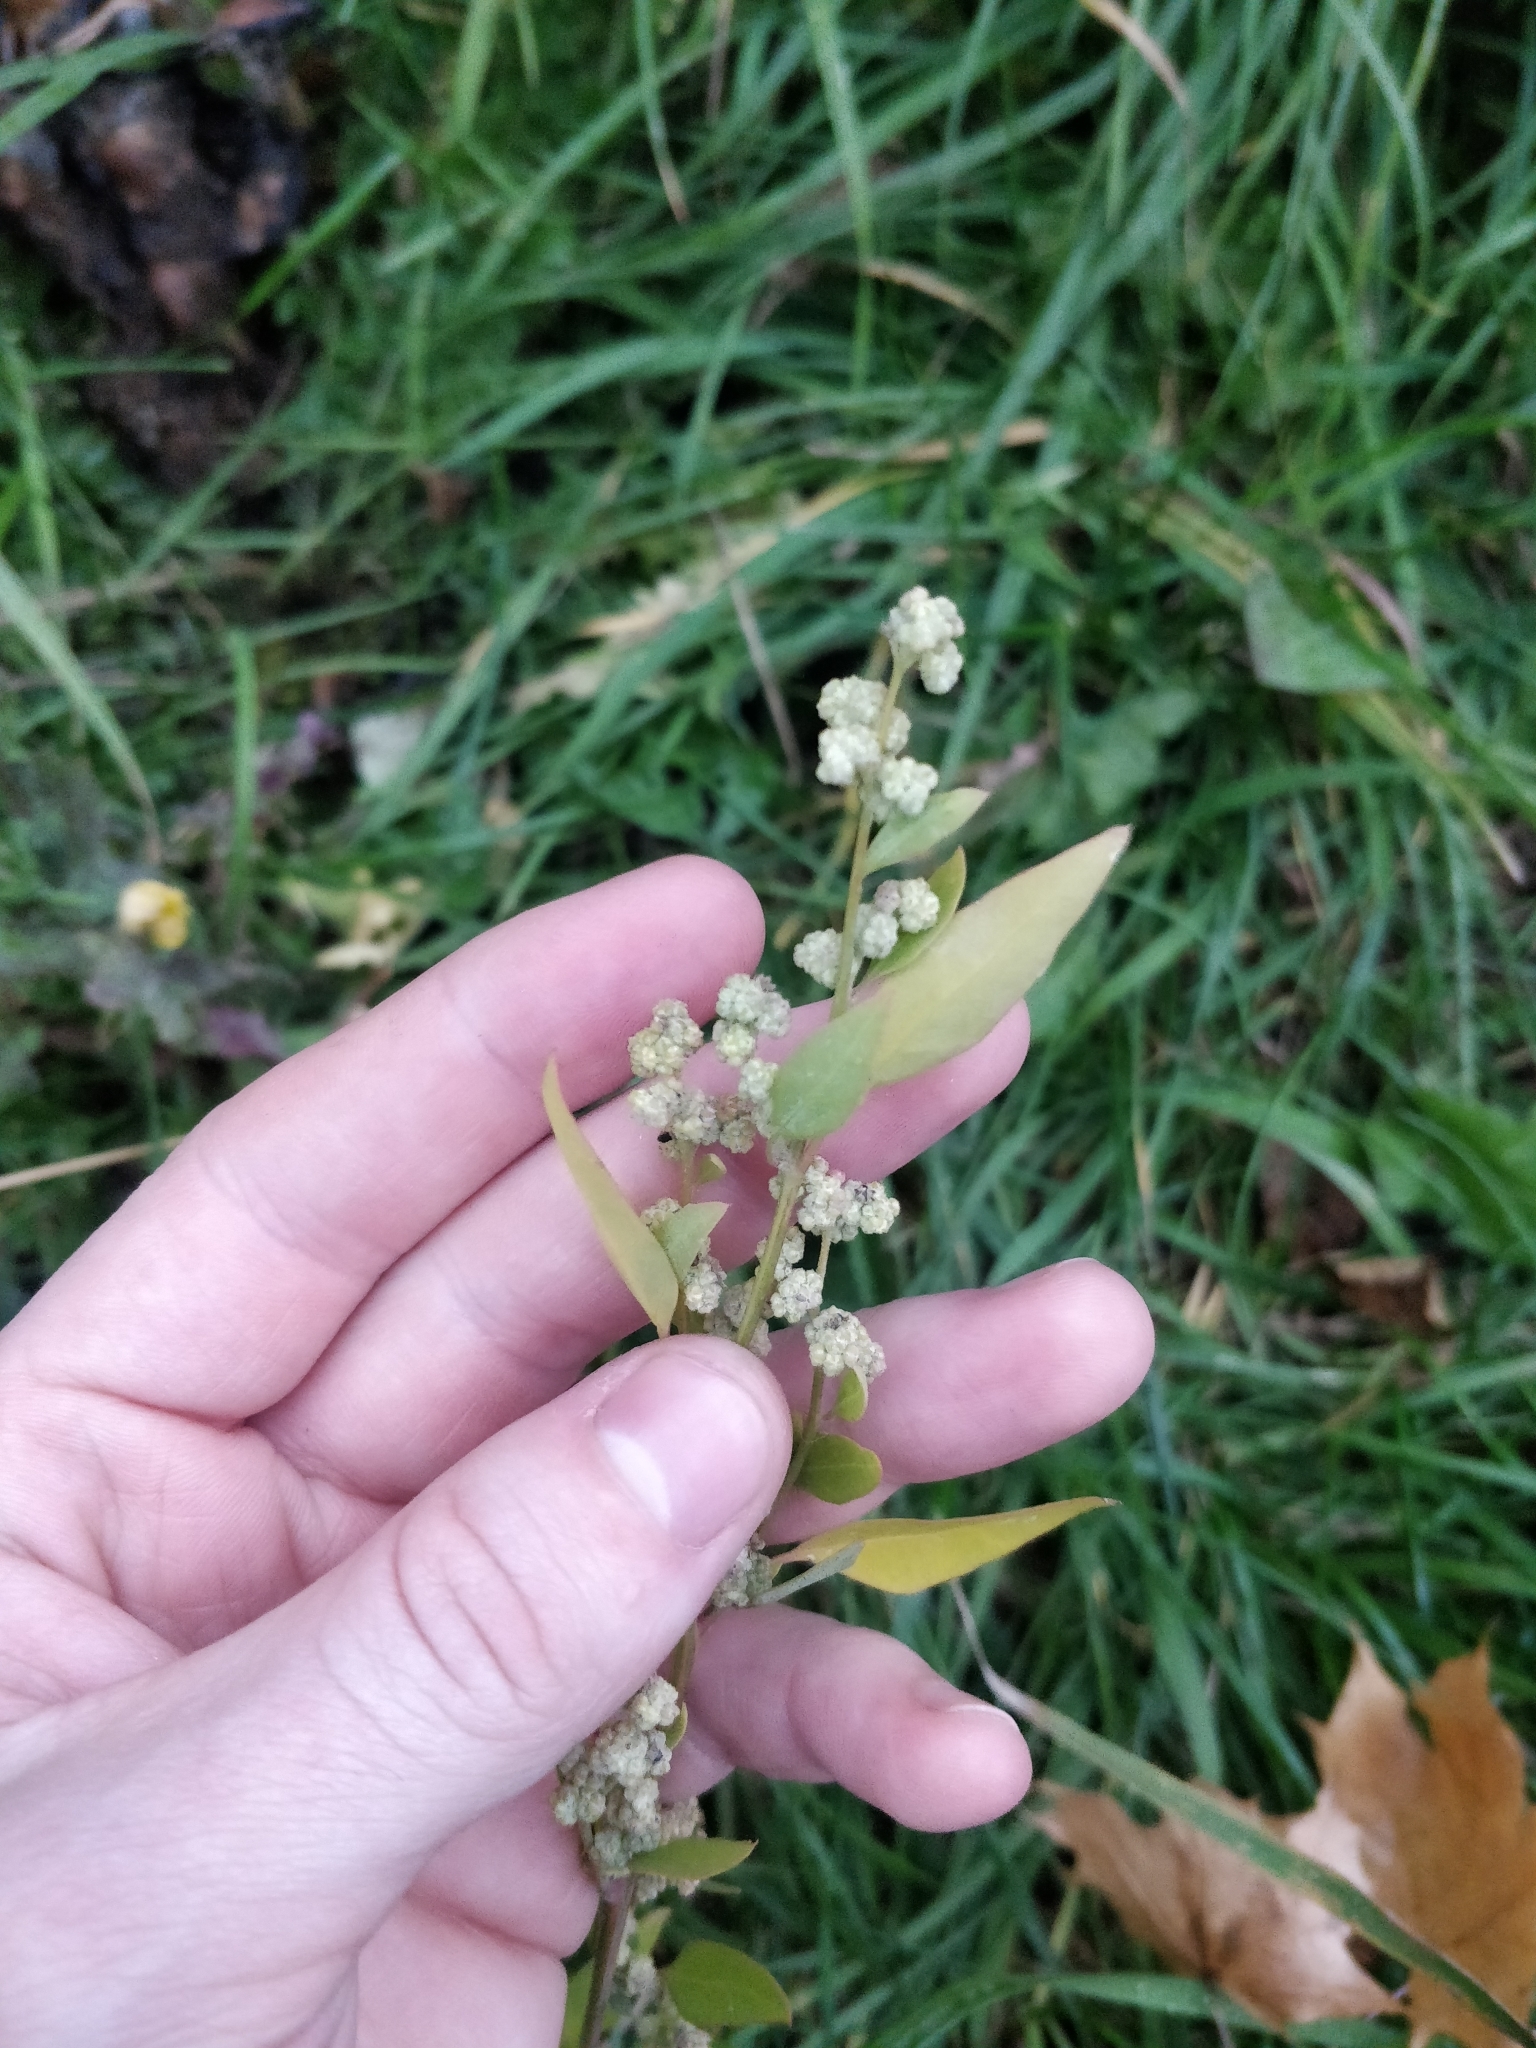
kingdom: Plantae
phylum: Tracheophyta
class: Magnoliopsida
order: Caryophyllales
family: Amaranthaceae
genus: Chenopodium
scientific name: Chenopodium album
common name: Fat-hen
